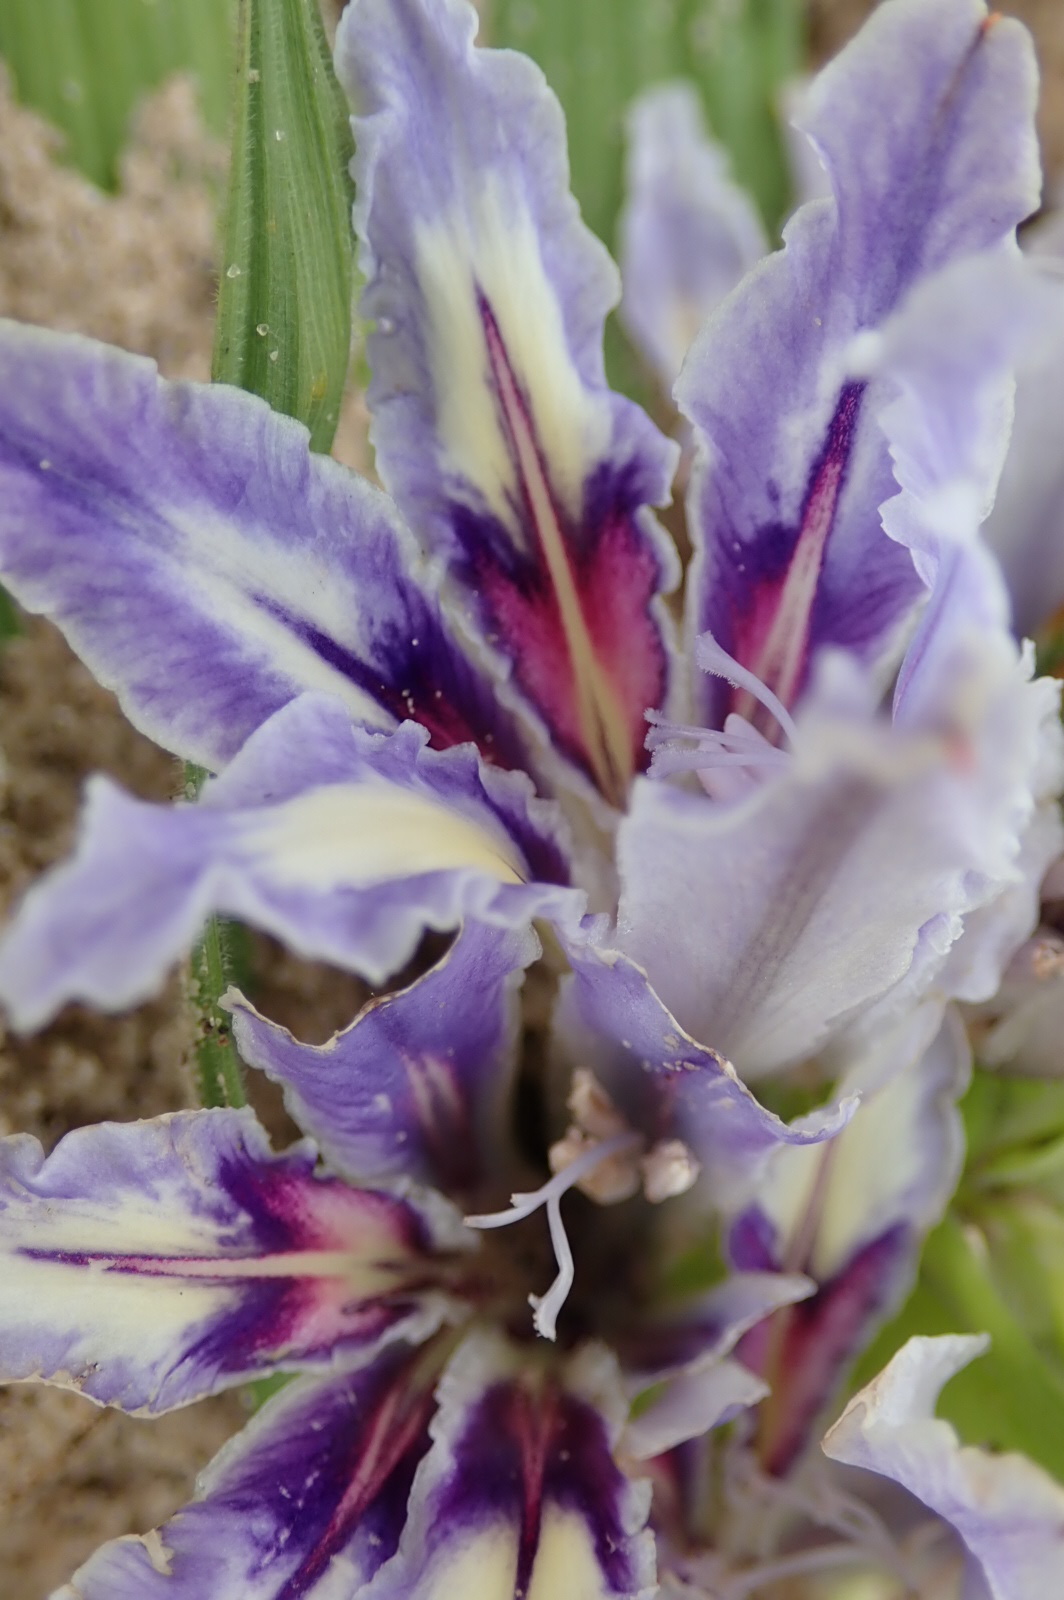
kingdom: Plantae
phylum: Tracheophyta
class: Liliopsida
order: Asparagales
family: Iridaceae
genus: Babiana
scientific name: Babiana nana
